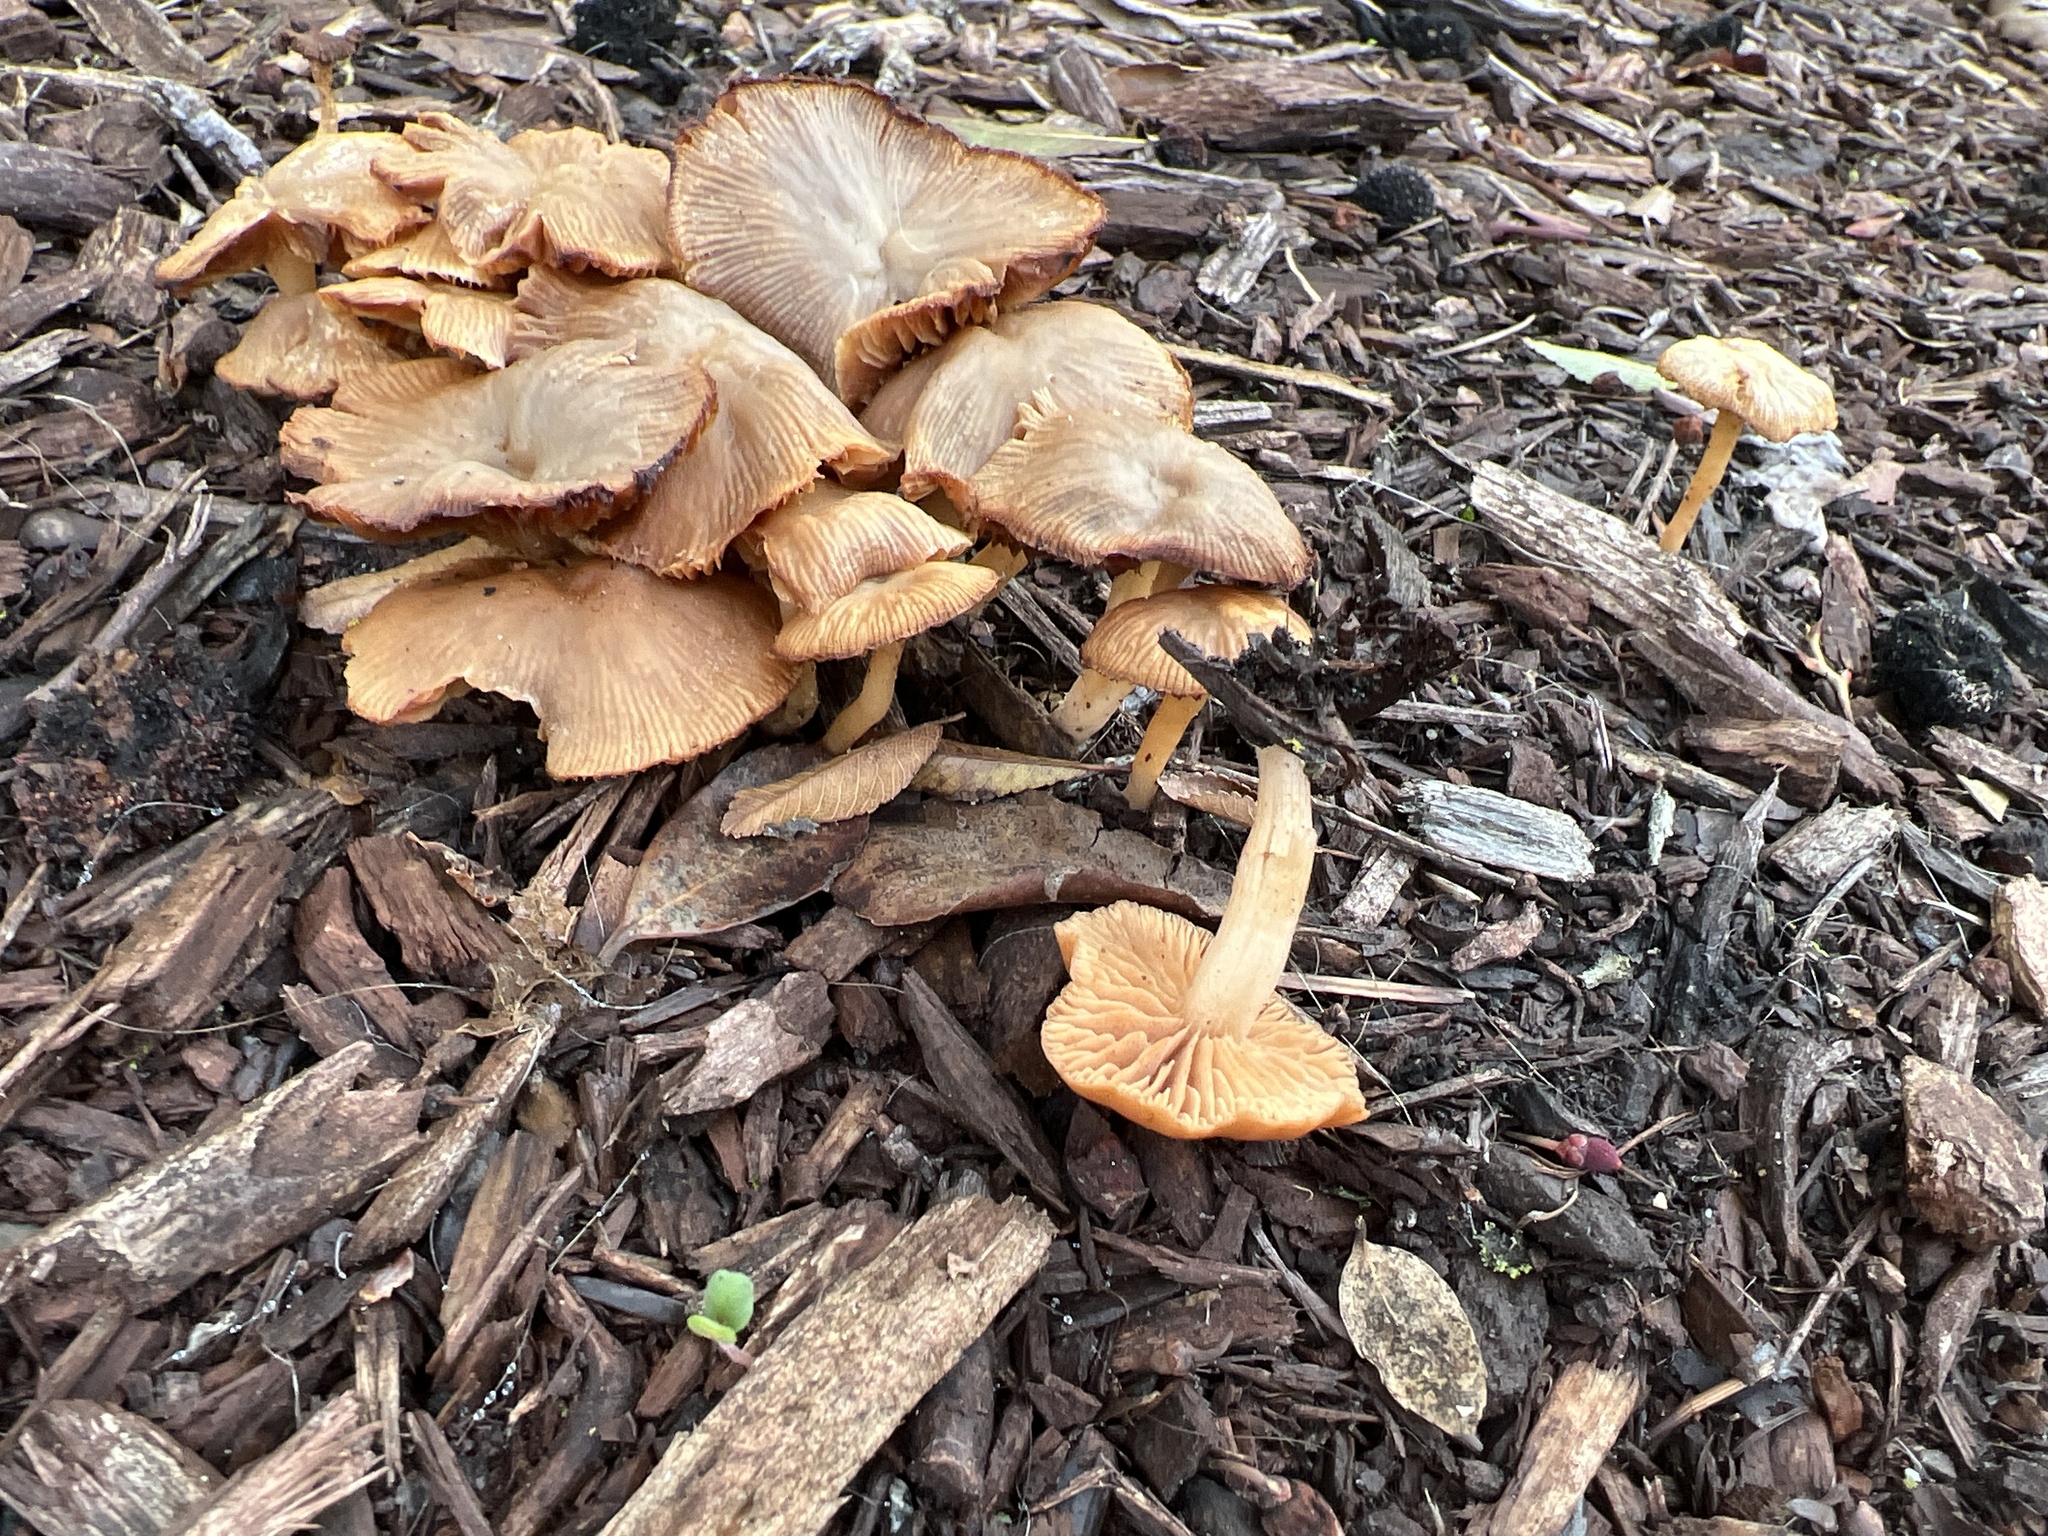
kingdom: Fungi
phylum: Basidiomycota
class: Agaricomycetes
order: Agaricales
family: Tubariaceae
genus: Tubaria
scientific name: Tubaria furfuracea
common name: Scurfy twiglet
